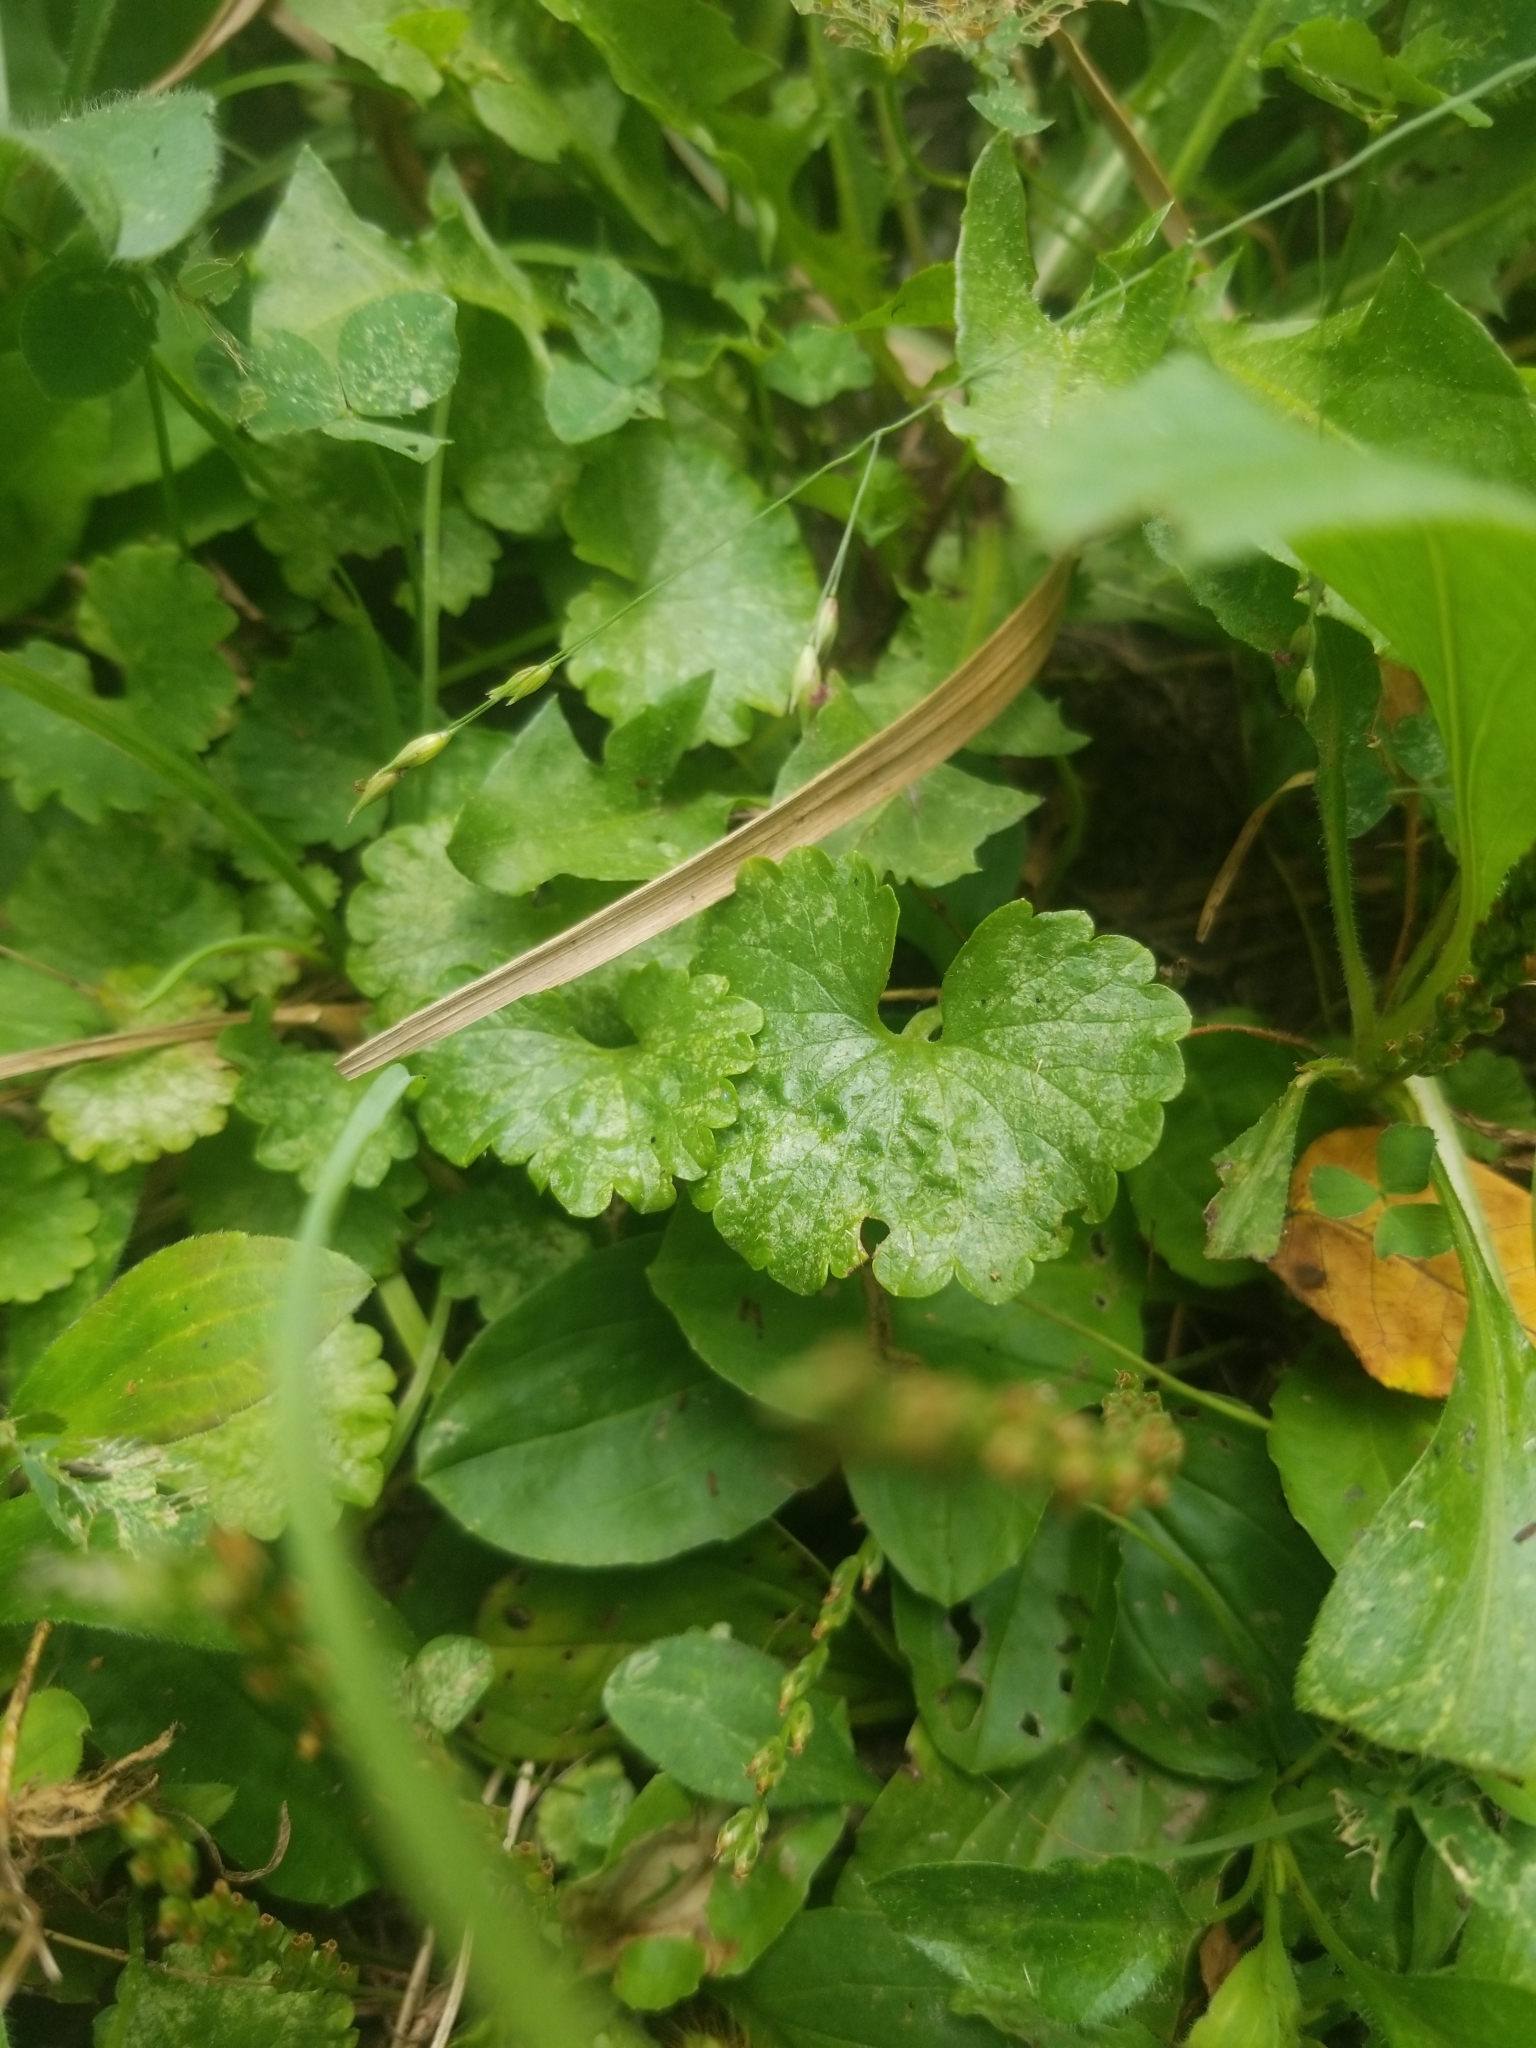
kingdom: Plantae
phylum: Tracheophyta
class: Magnoliopsida
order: Lamiales
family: Lamiaceae
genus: Glechoma
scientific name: Glechoma hederacea
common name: Ground ivy
